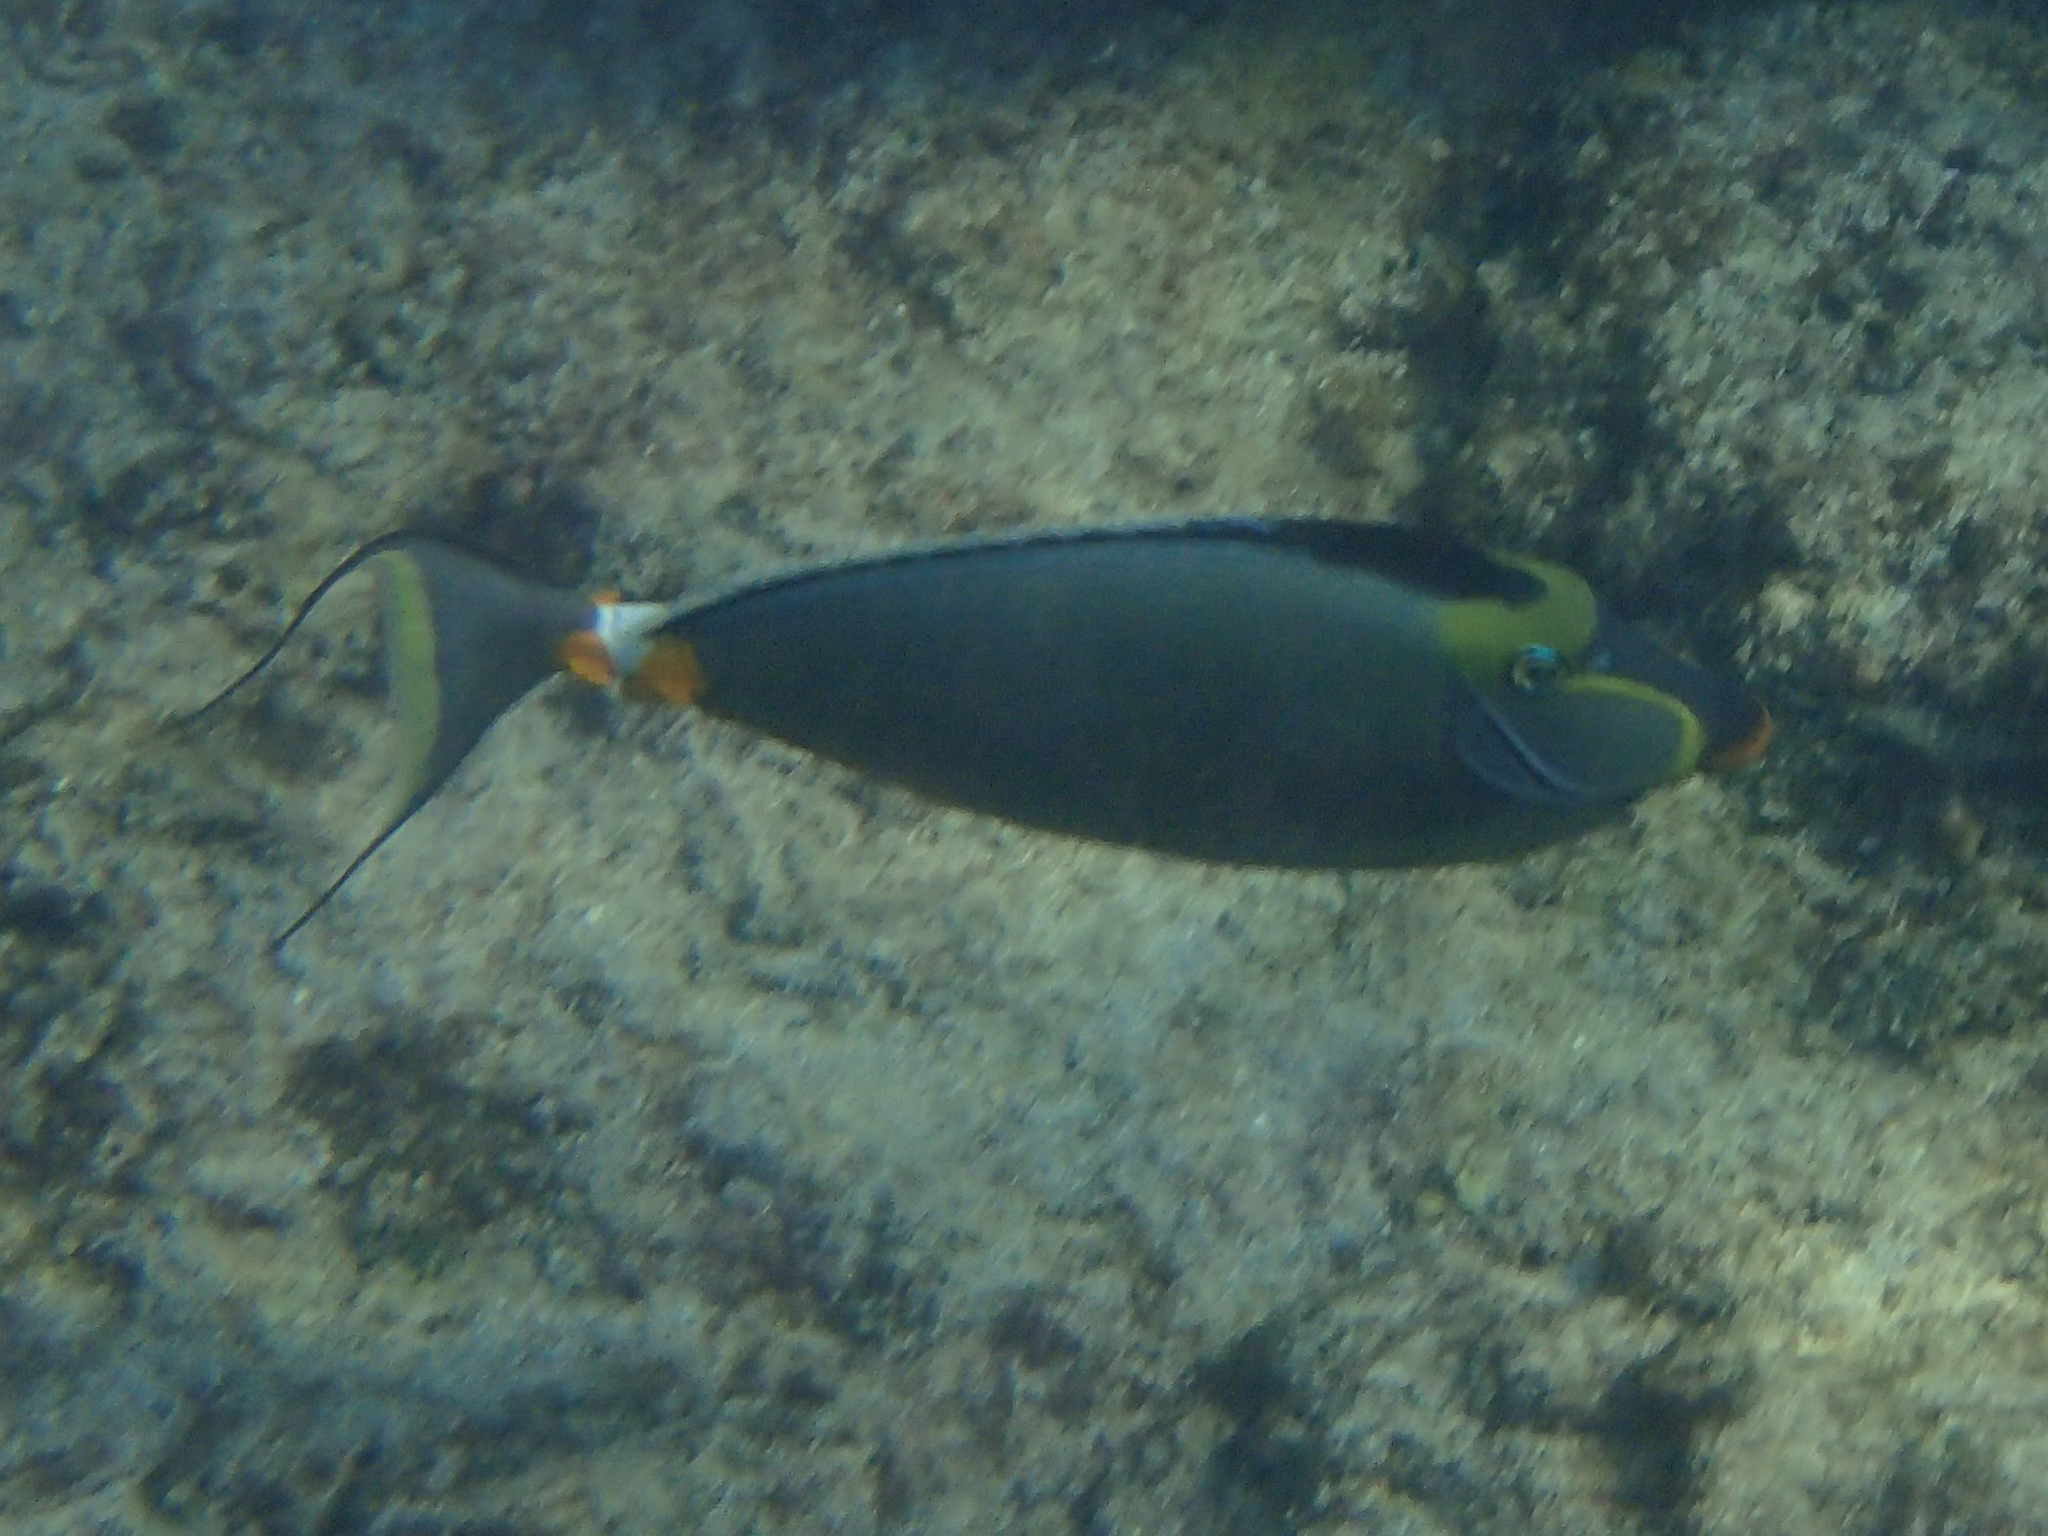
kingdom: Animalia
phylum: Chordata
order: Perciformes
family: Acanthuridae
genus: Naso
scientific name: Naso lituratus
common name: Orangespine unicornfish
